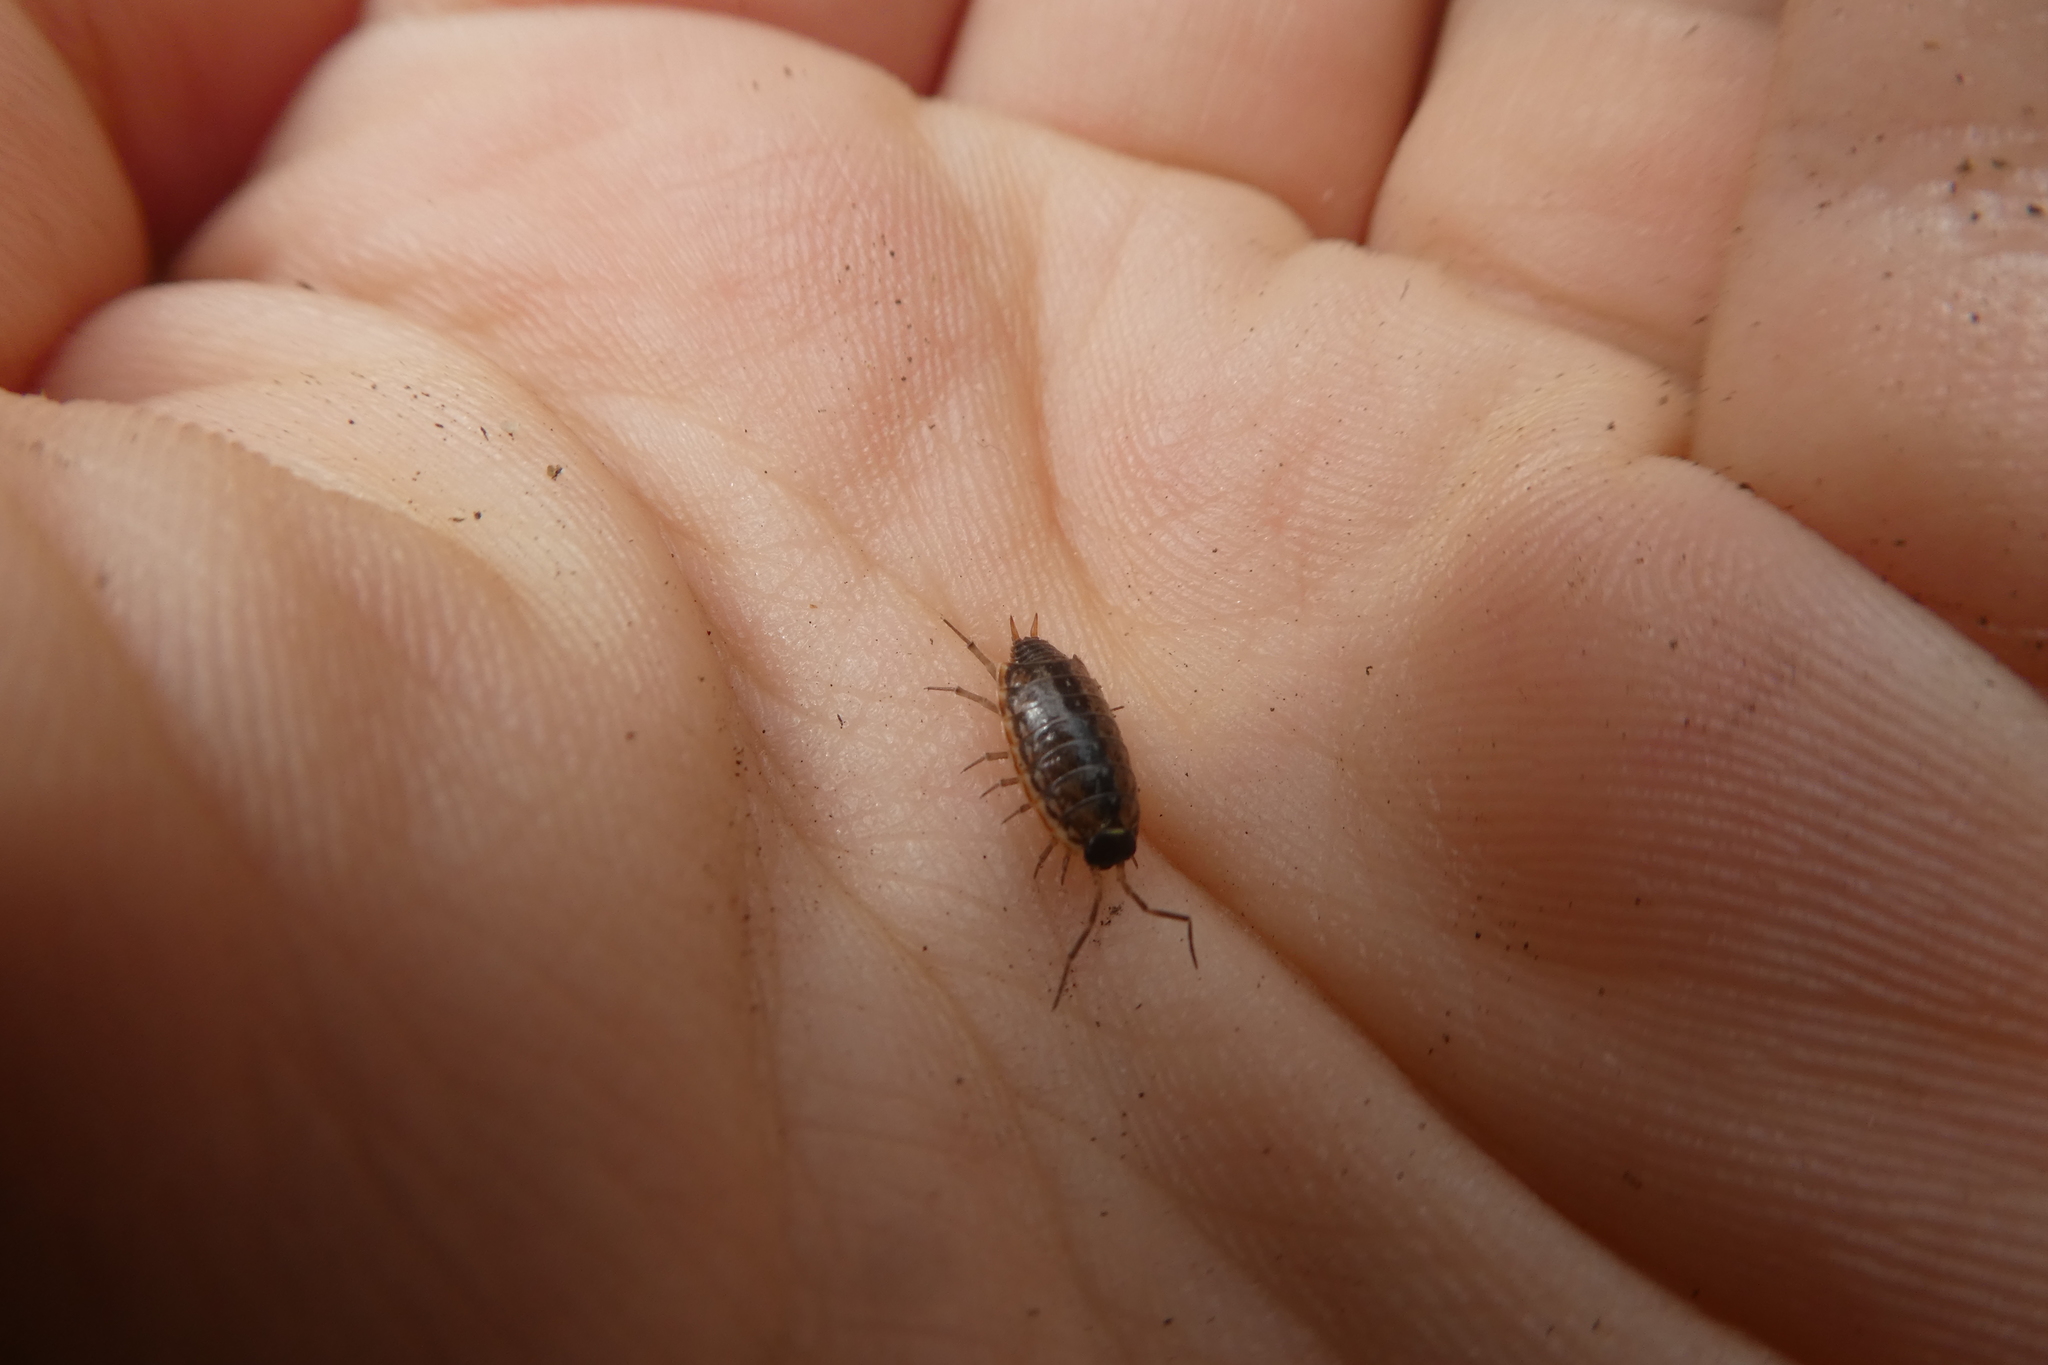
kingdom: Animalia
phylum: Arthropoda
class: Malacostraca
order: Isopoda
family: Philosciidae
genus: Philoscia
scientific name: Philoscia muscorum
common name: Common striped woodlouse
